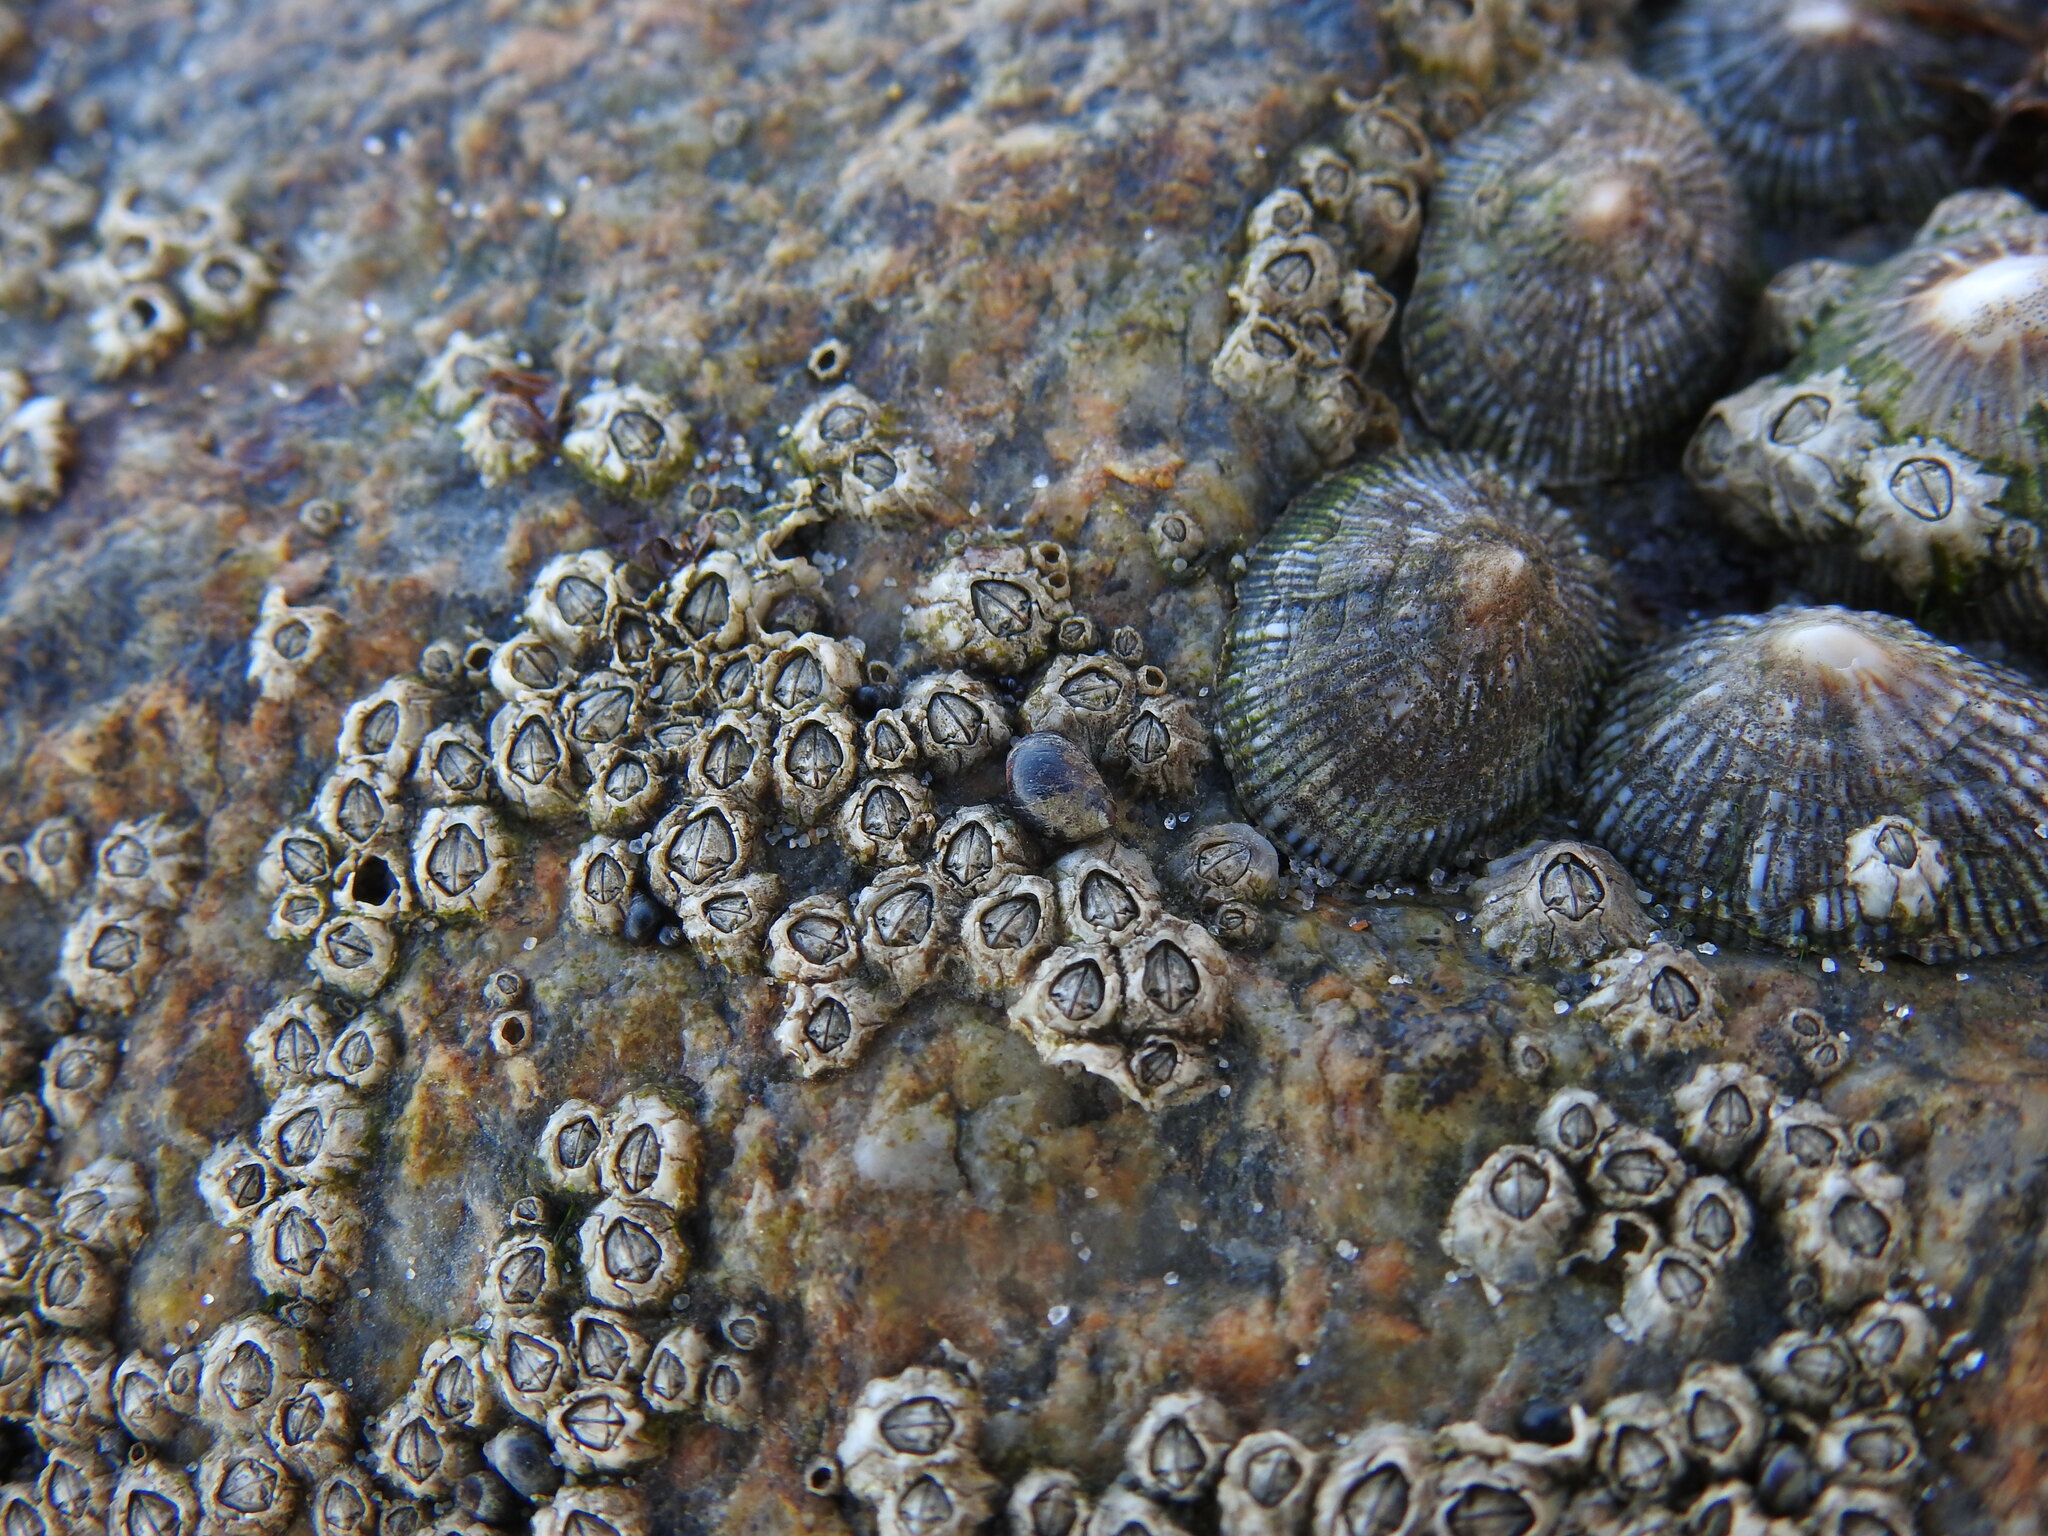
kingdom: Animalia
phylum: Mollusca
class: Gastropoda
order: Littorinimorpha
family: Littorinidae
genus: Melarhaphe
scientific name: Melarhaphe neritoides
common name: Small periwinkle
